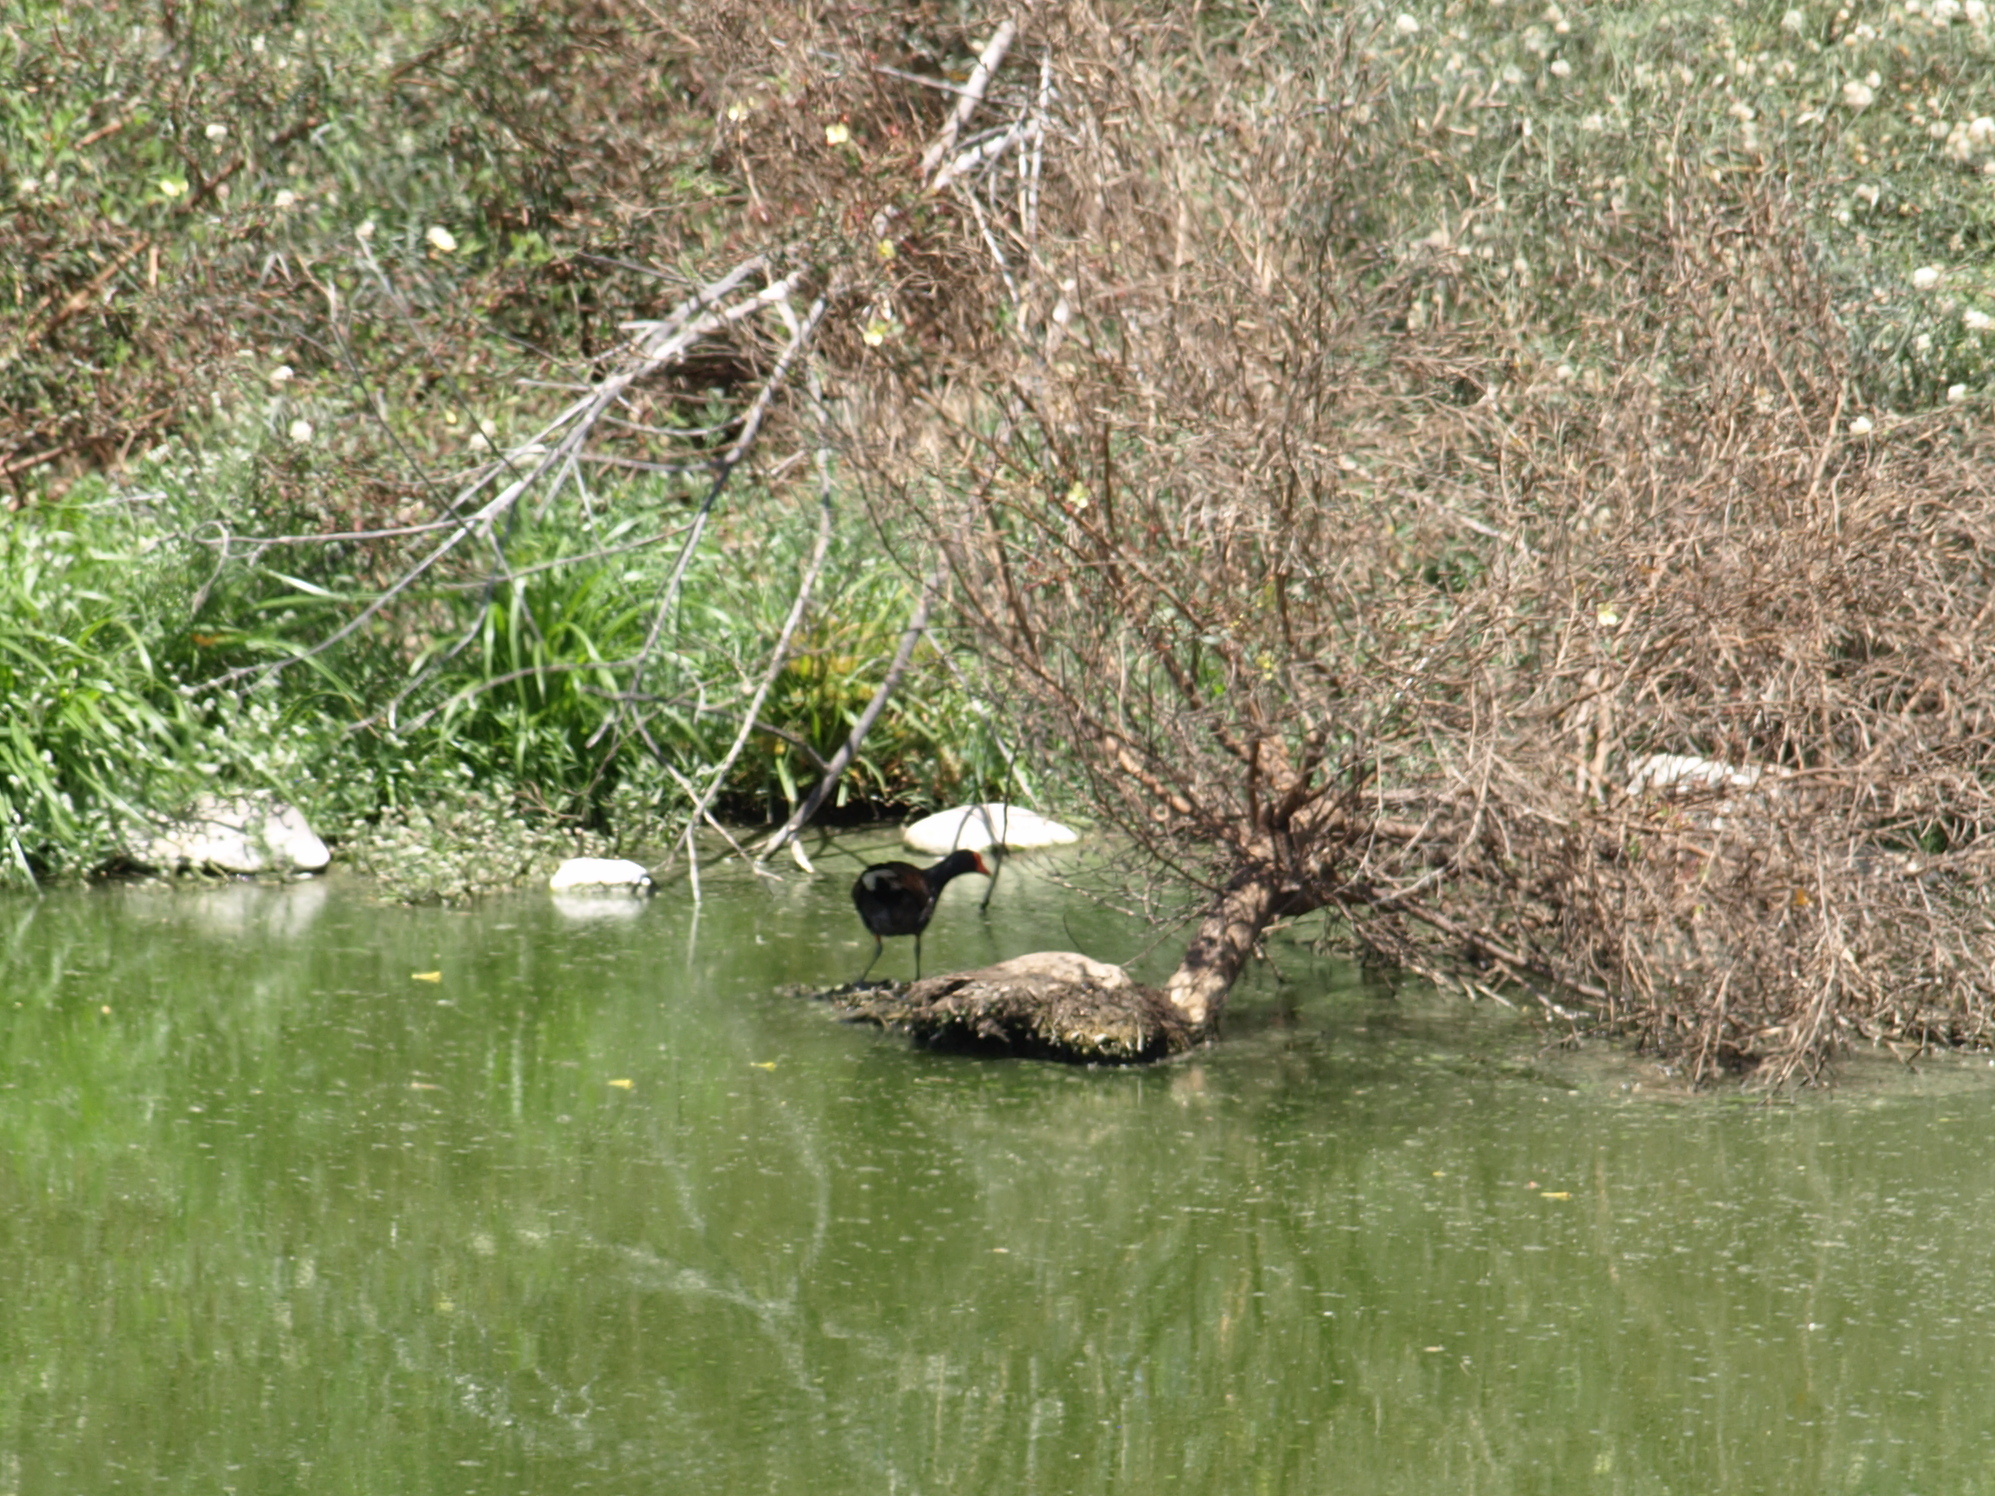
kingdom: Animalia
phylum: Chordata
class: Aves
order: Gruiformes
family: Rallidae
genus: Gallinula
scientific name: Gallinula chloropus
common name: Common moorhen
